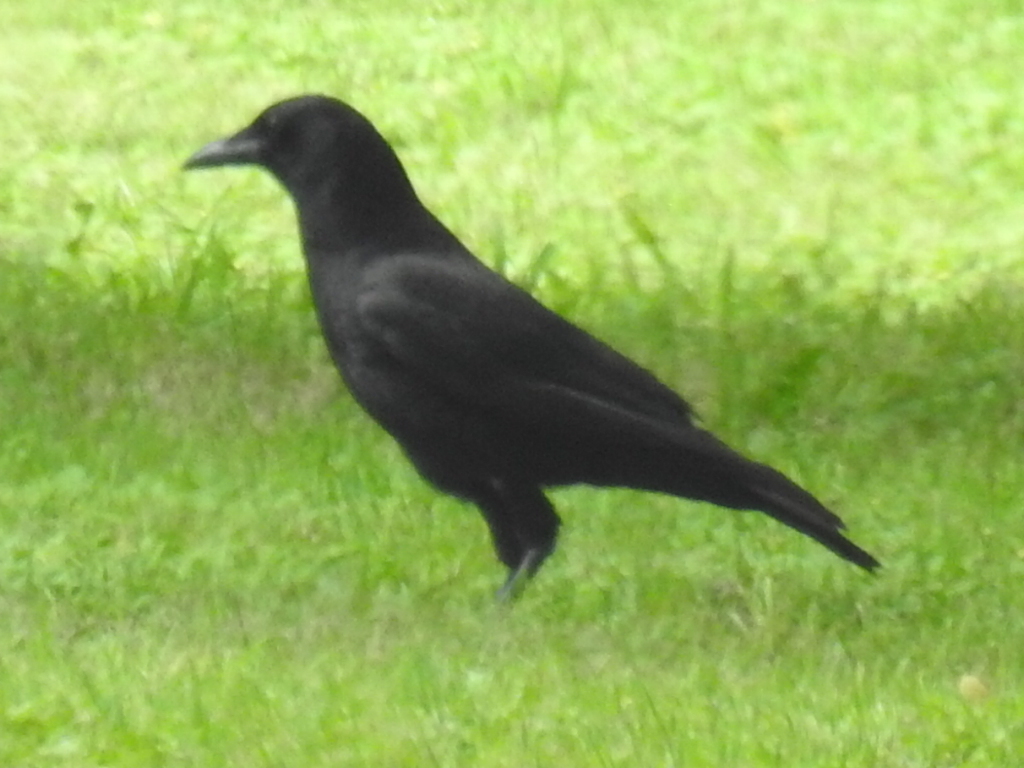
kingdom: Animalia
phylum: Chordata
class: Aves
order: Passeriformes
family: Corvidae
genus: Corvus
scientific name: Corvus brachyrhynchos
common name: American crow
